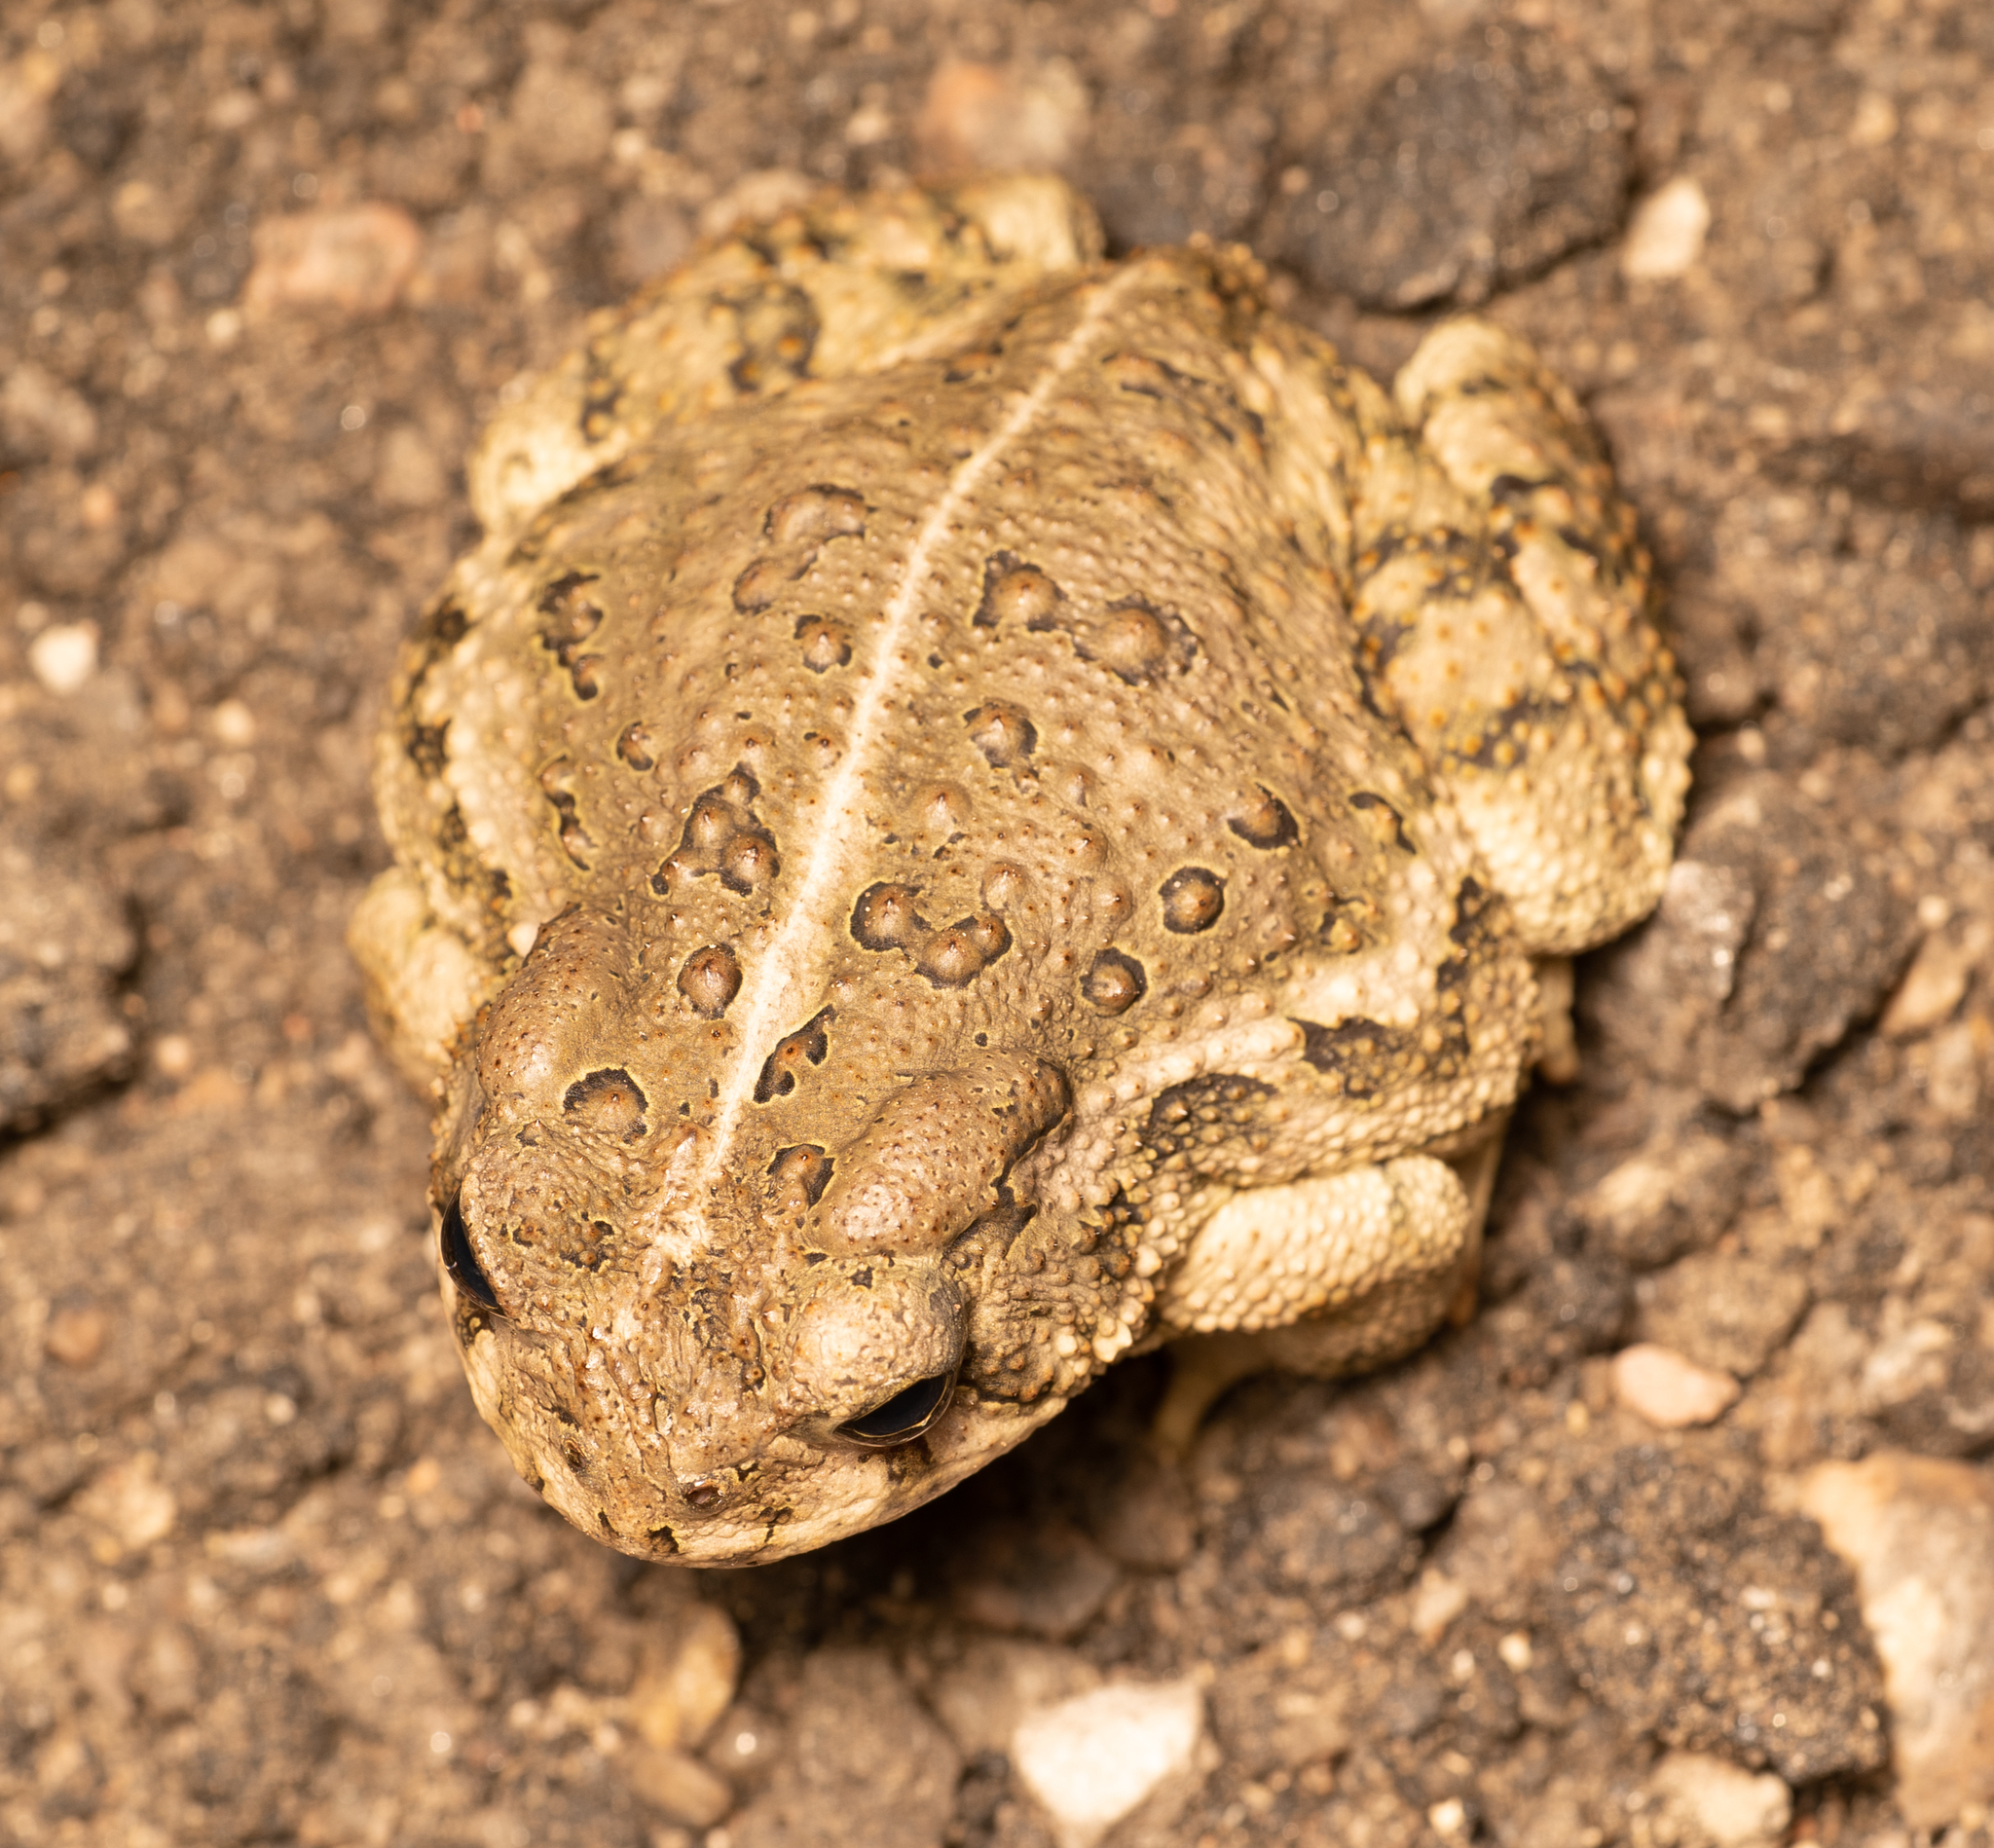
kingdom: Animalia
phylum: Chordata
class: Amphibia
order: Anura
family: Bufonidae
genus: Anaxyrus
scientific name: Anaxyrus woodhousii
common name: Woodhouse's toad
